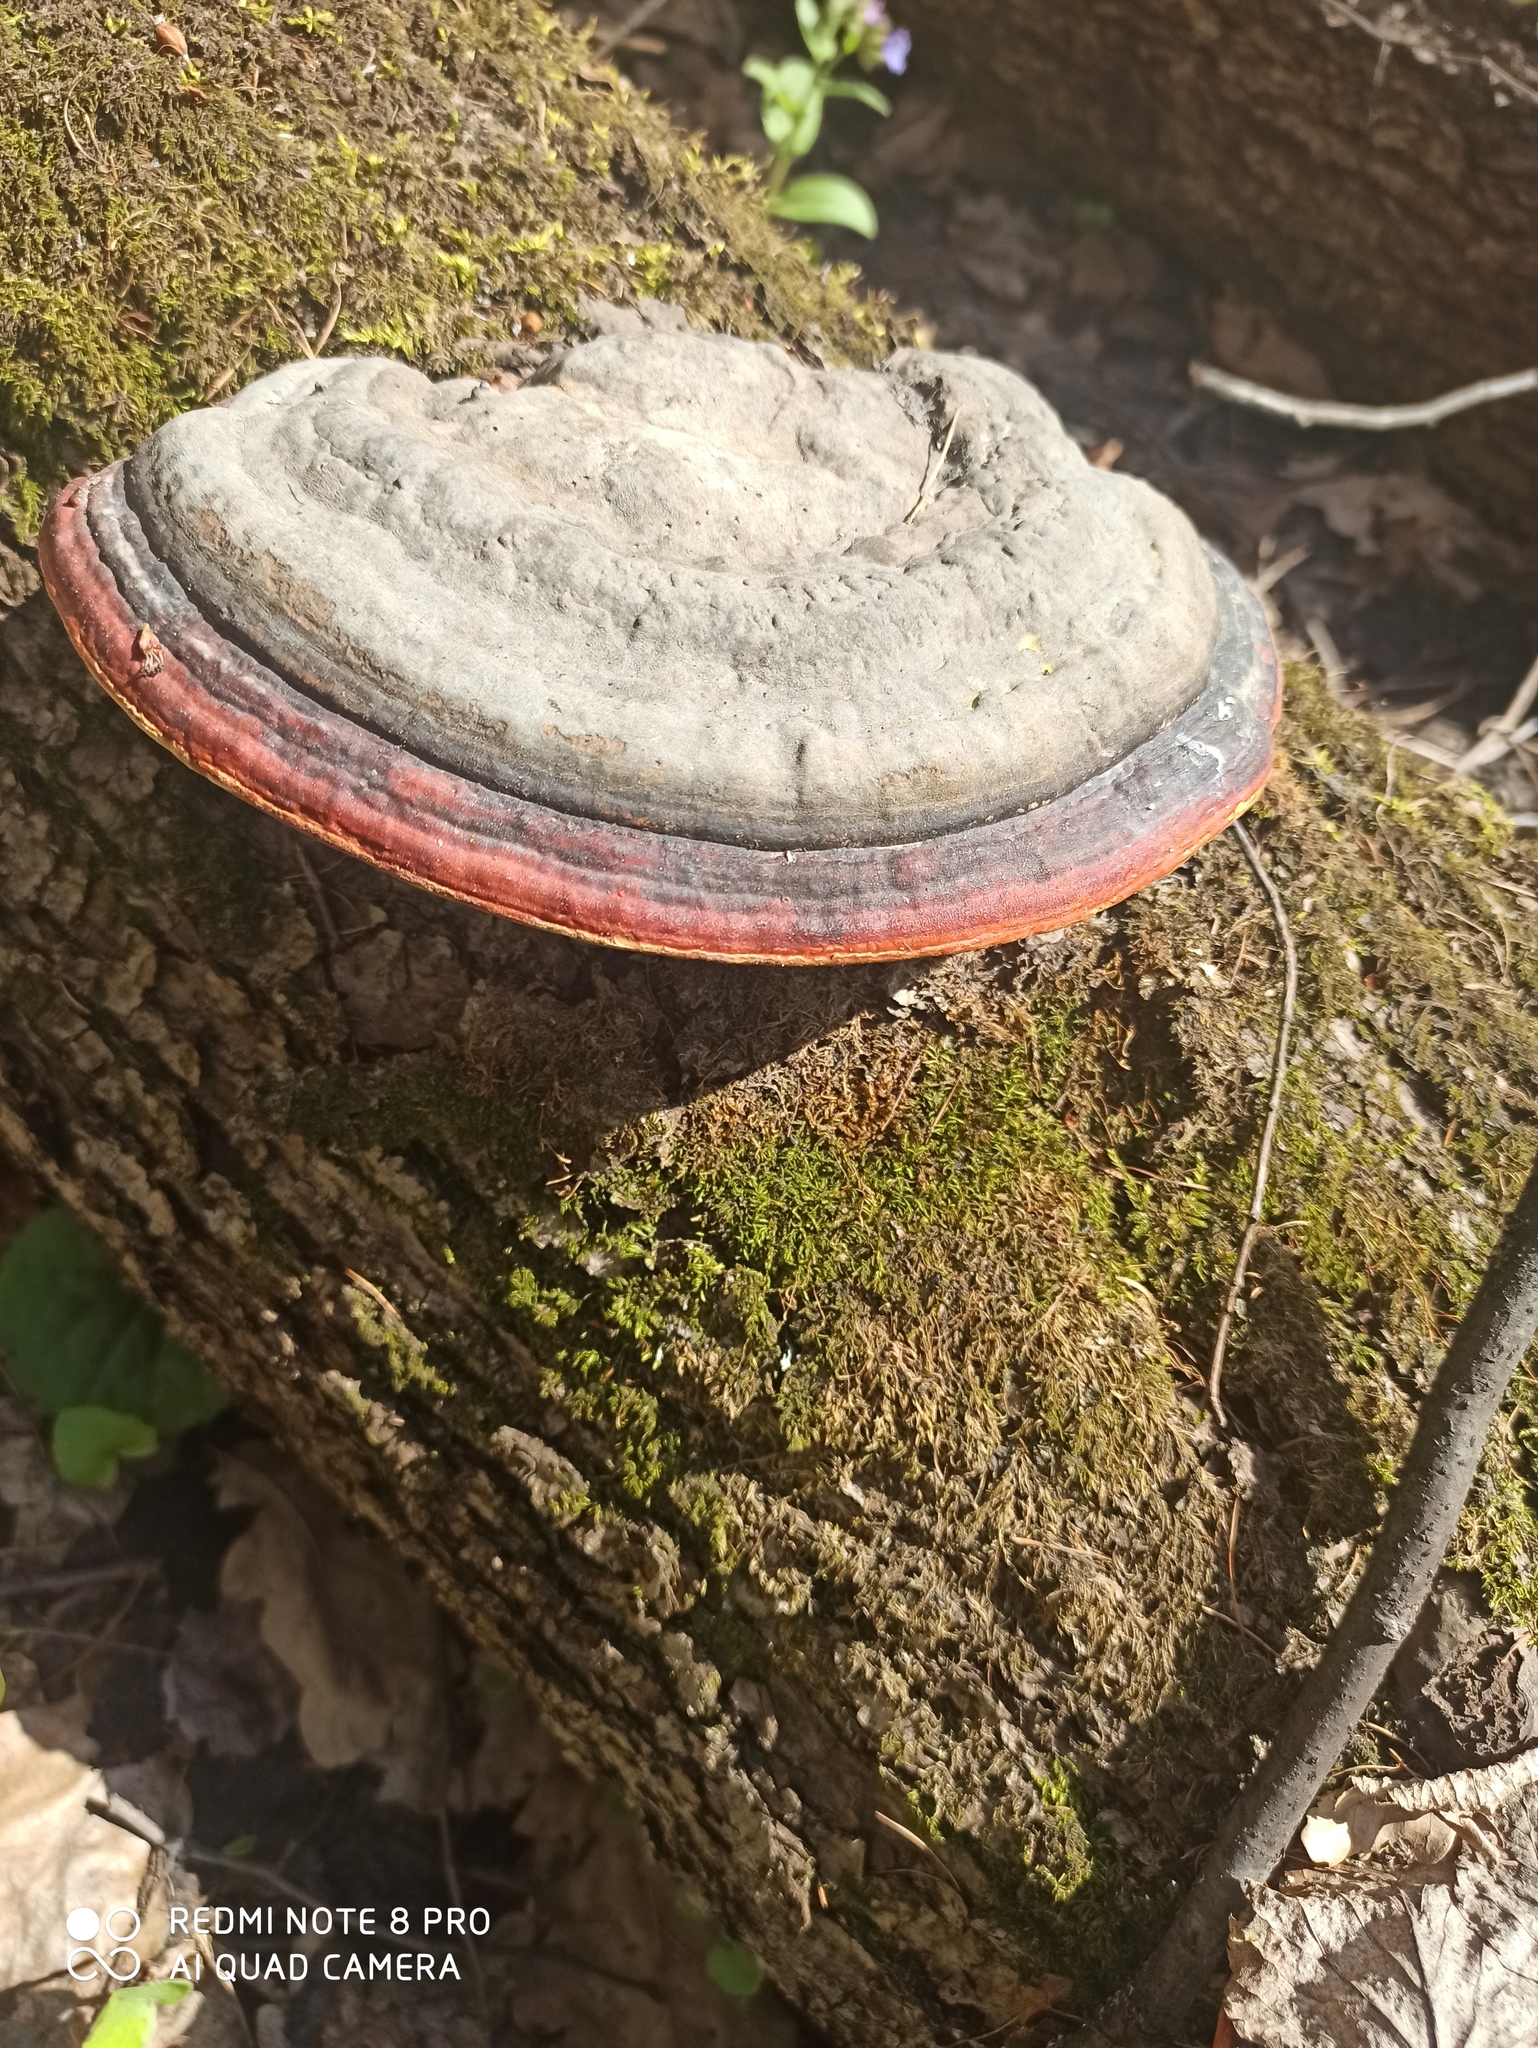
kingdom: Fungi
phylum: Basidiomycota
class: Agaricomycetes
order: Polyporales
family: Fomitopsidaceae
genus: Fomitopsis
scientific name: Fomitopsis pinicola
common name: Red-belted bracket
